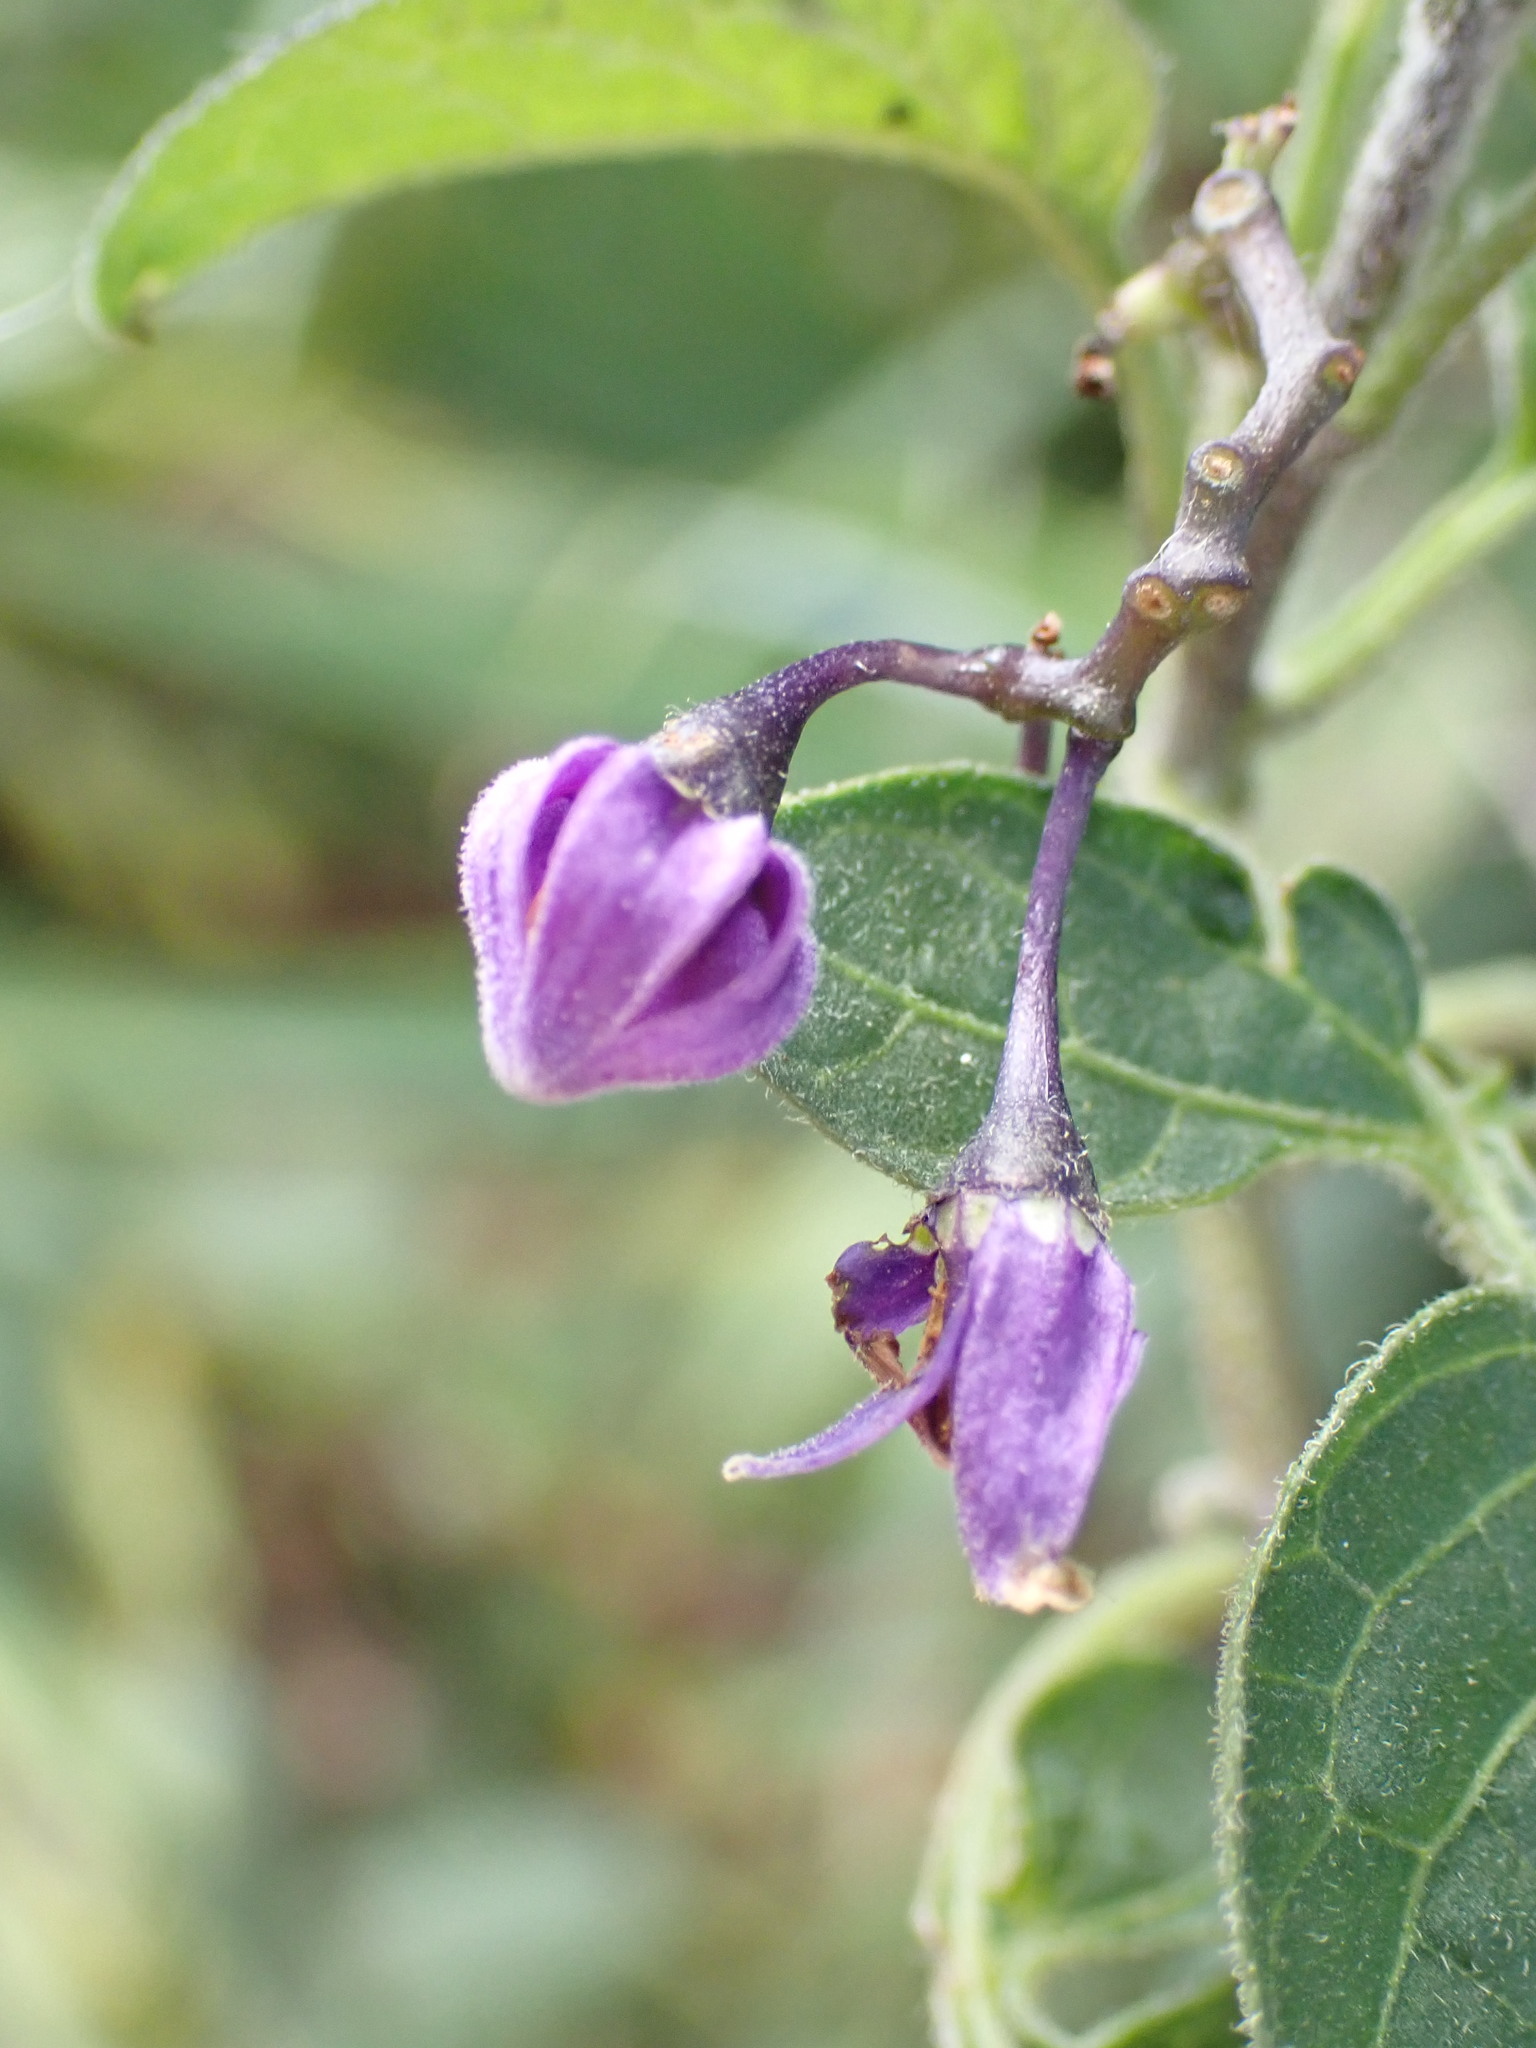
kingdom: Plantae
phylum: Tracheophyta
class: Magnoliopsida
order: Solanales
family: Solanaceae
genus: Lycium
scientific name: Lycium chinense
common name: Chinese teaplant
